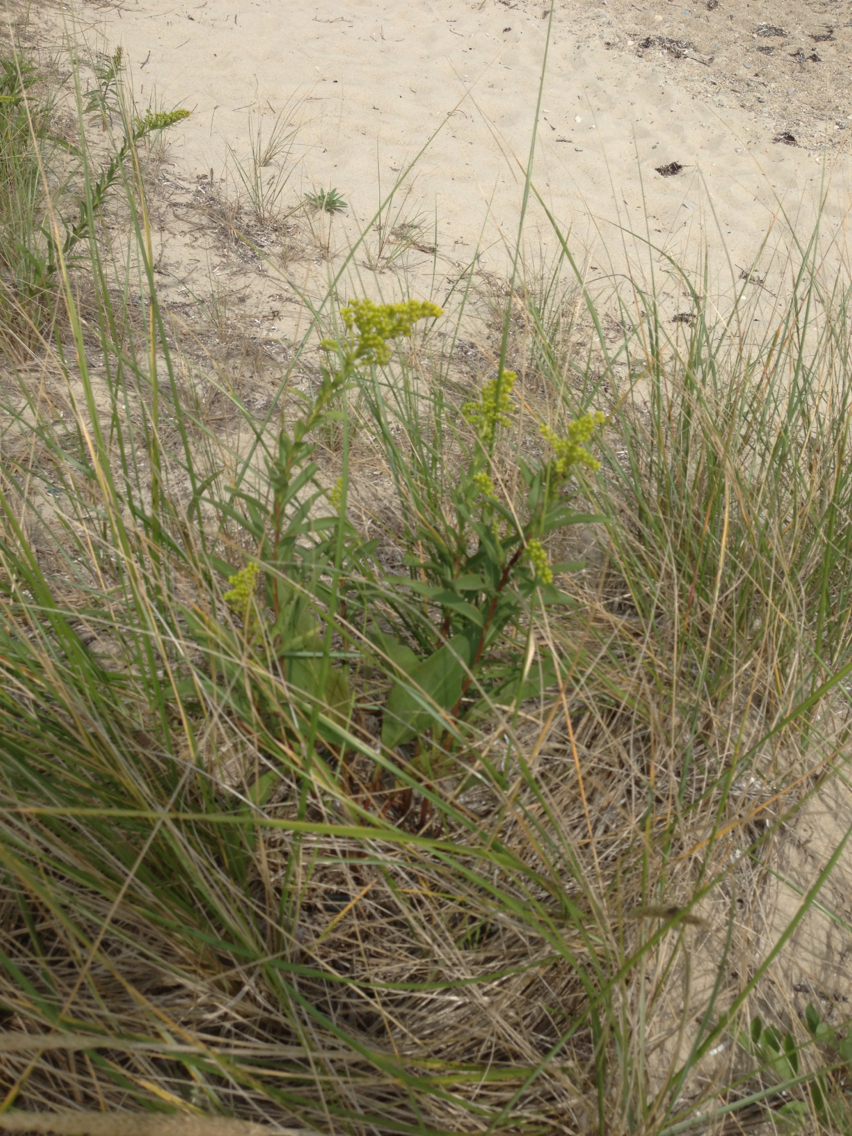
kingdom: Plantae
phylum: Tracheophyta
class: Magnoliopsida
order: Asterales
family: Asteraceae
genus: Solidago
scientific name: Solidago sempervirens
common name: Salt-marsh goldenrod
